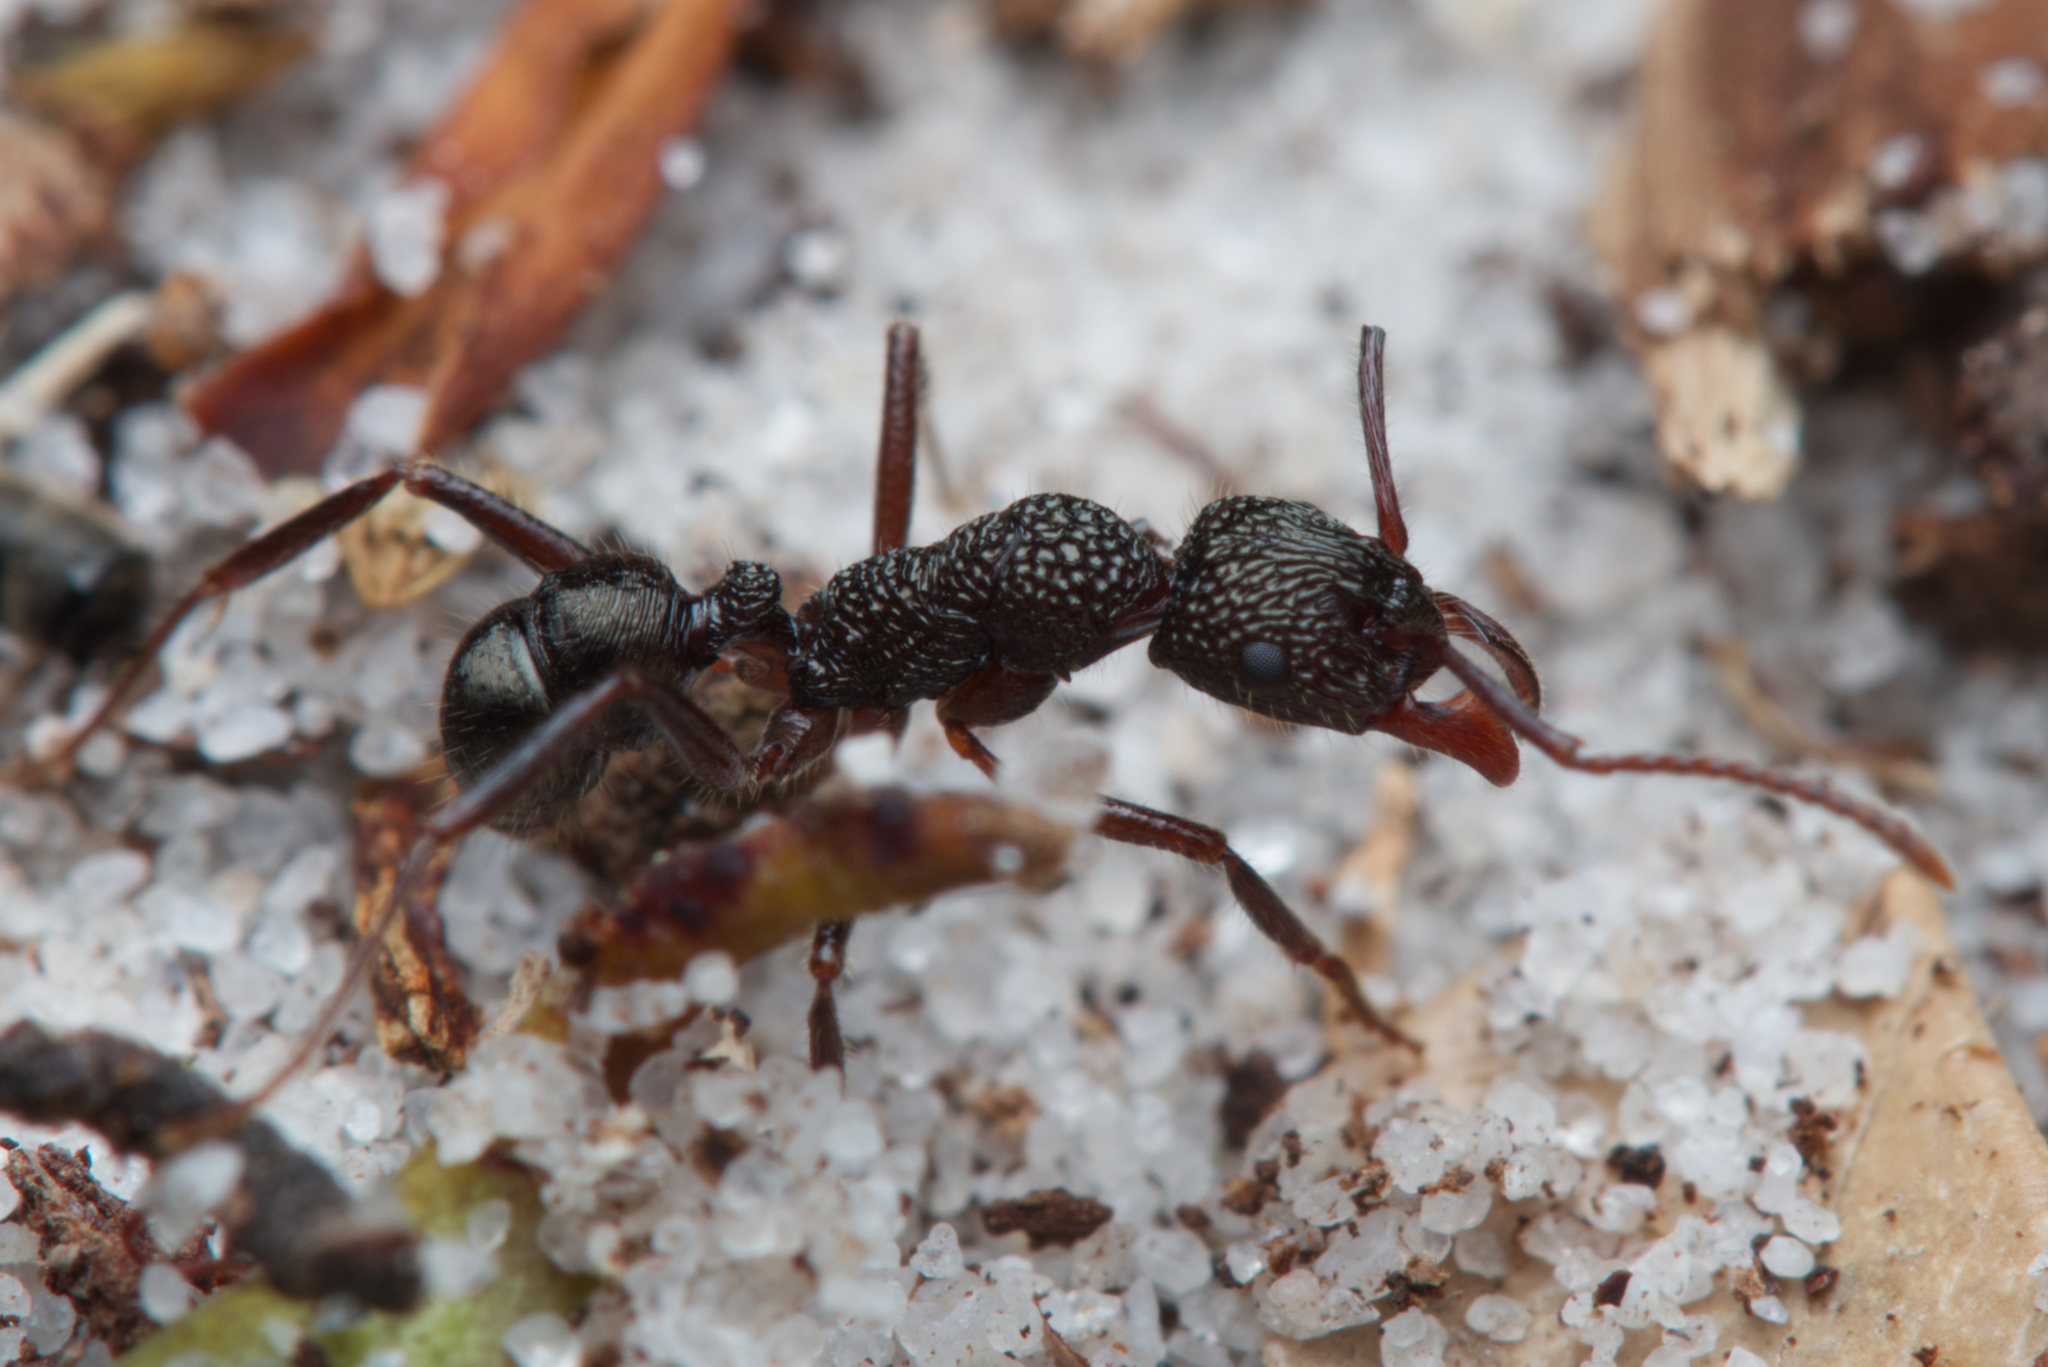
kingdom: Animalia
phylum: Arthropoda
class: Insecta
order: Hymenoptera
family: Formicidae
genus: Rhytidoponera
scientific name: Rhytidoponera impressa
